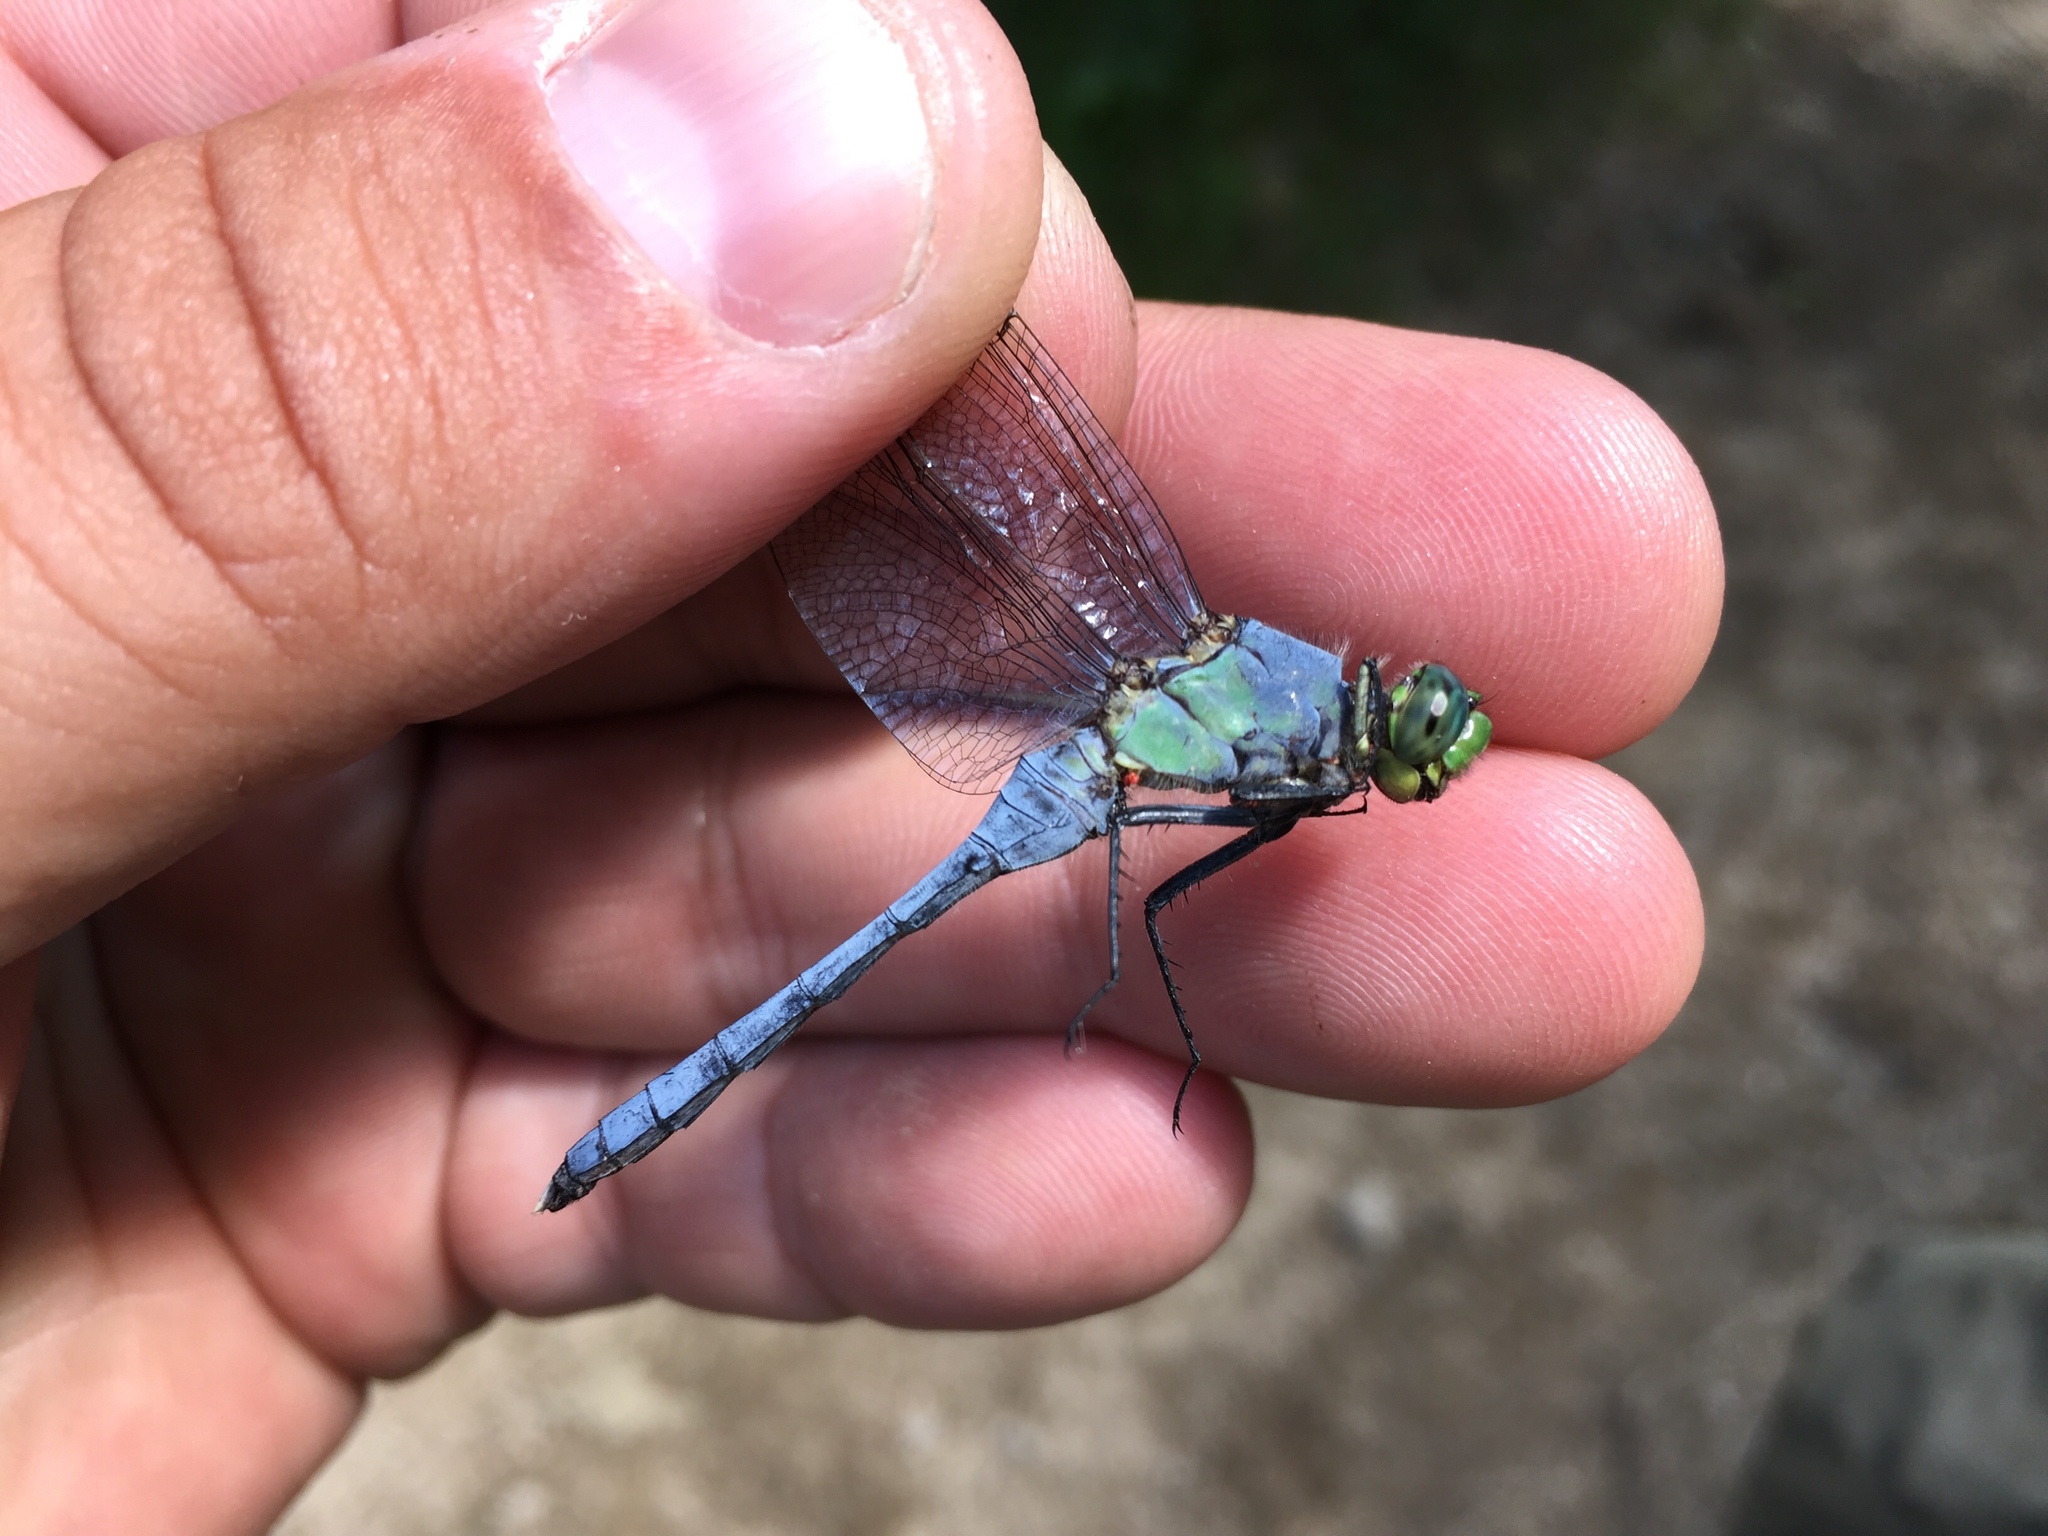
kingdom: Animalia
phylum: Arthropoda
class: Insecta
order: Odonata
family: Libellulidae
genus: Erythemis
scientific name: Erythemis simplicicollis
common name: Eastern pondhawk
